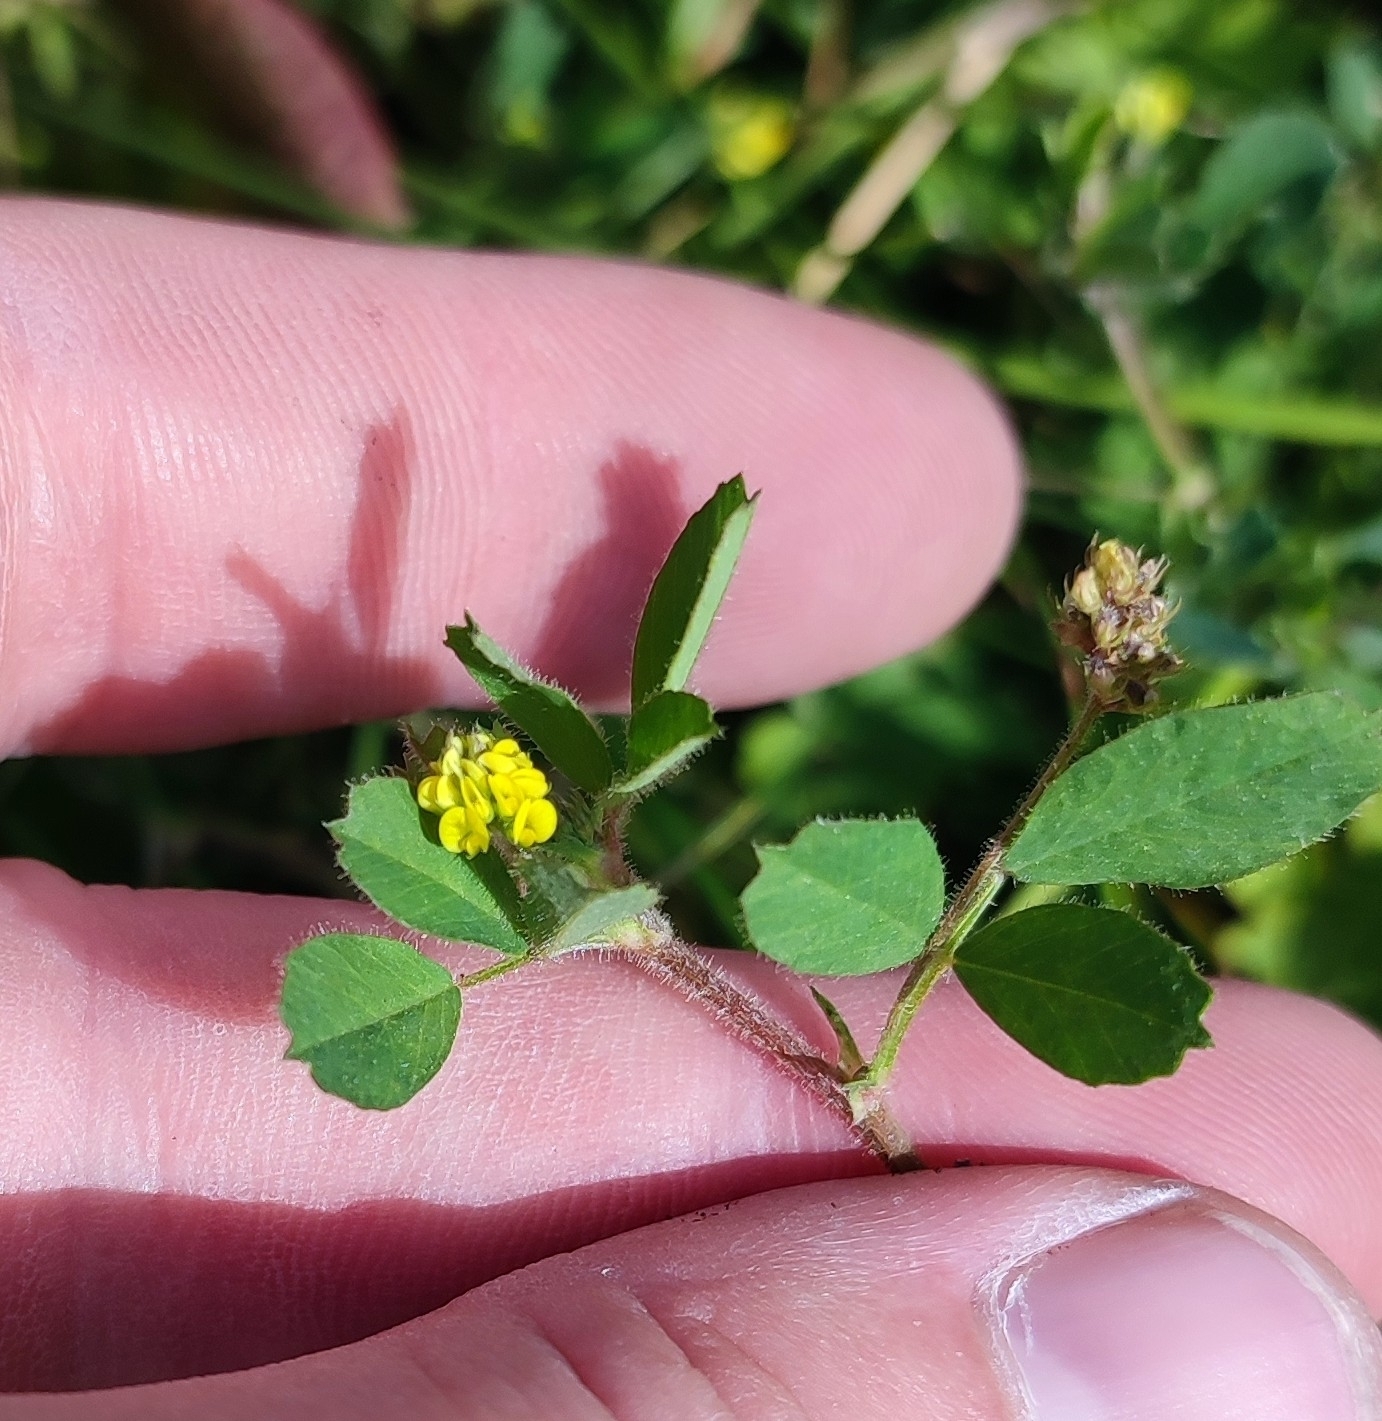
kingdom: Plantae
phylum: Tracheophyta
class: Magnoliopsida
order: Fabales
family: Fabaceae
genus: Medicago
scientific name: Medicago lupulina
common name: Black medick
